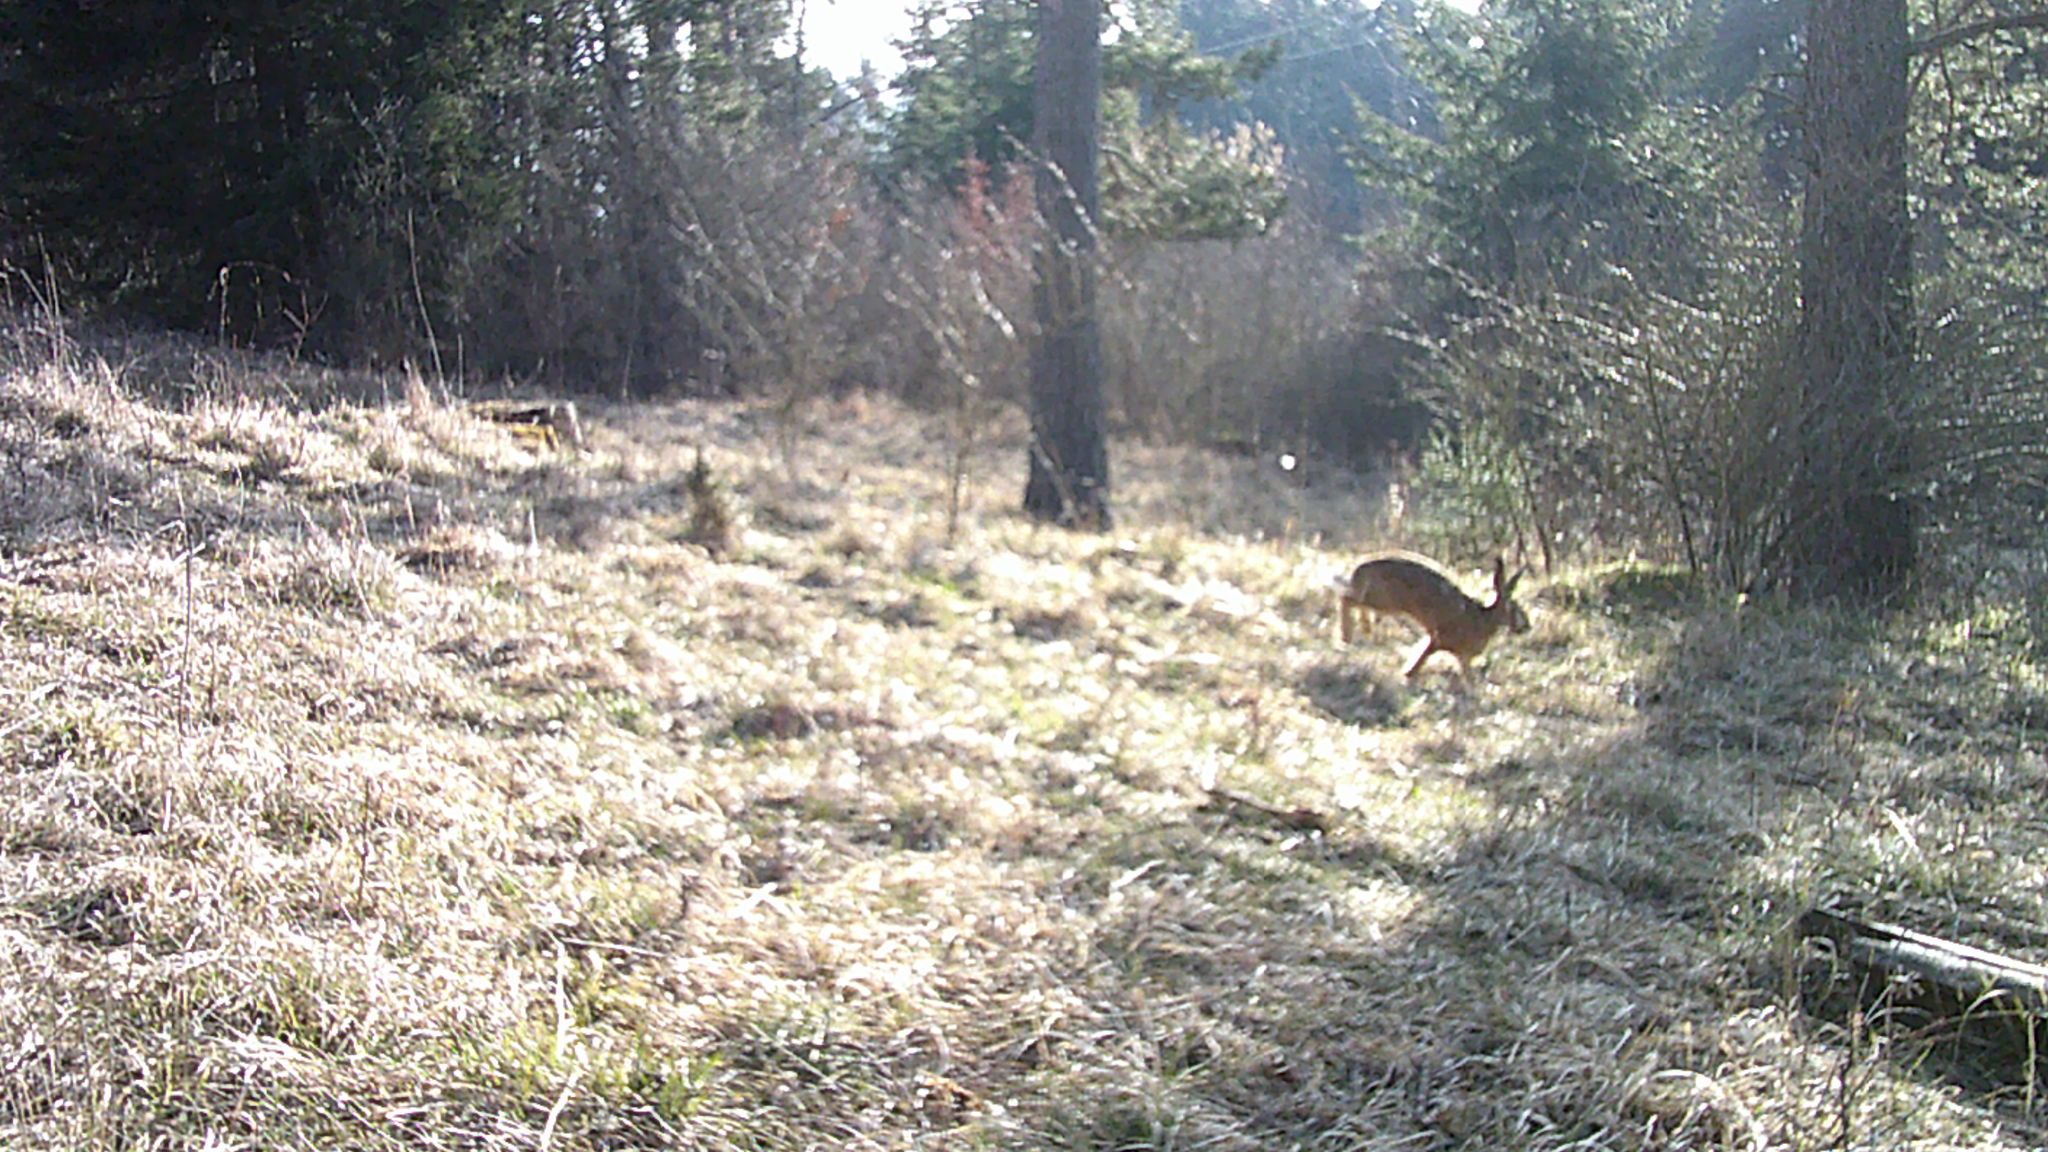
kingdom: Animalia
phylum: Chordata
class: Mammalia
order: Lagomorpha
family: Leporidae
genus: Lepus
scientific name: Lepus europaeus
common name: European hare
